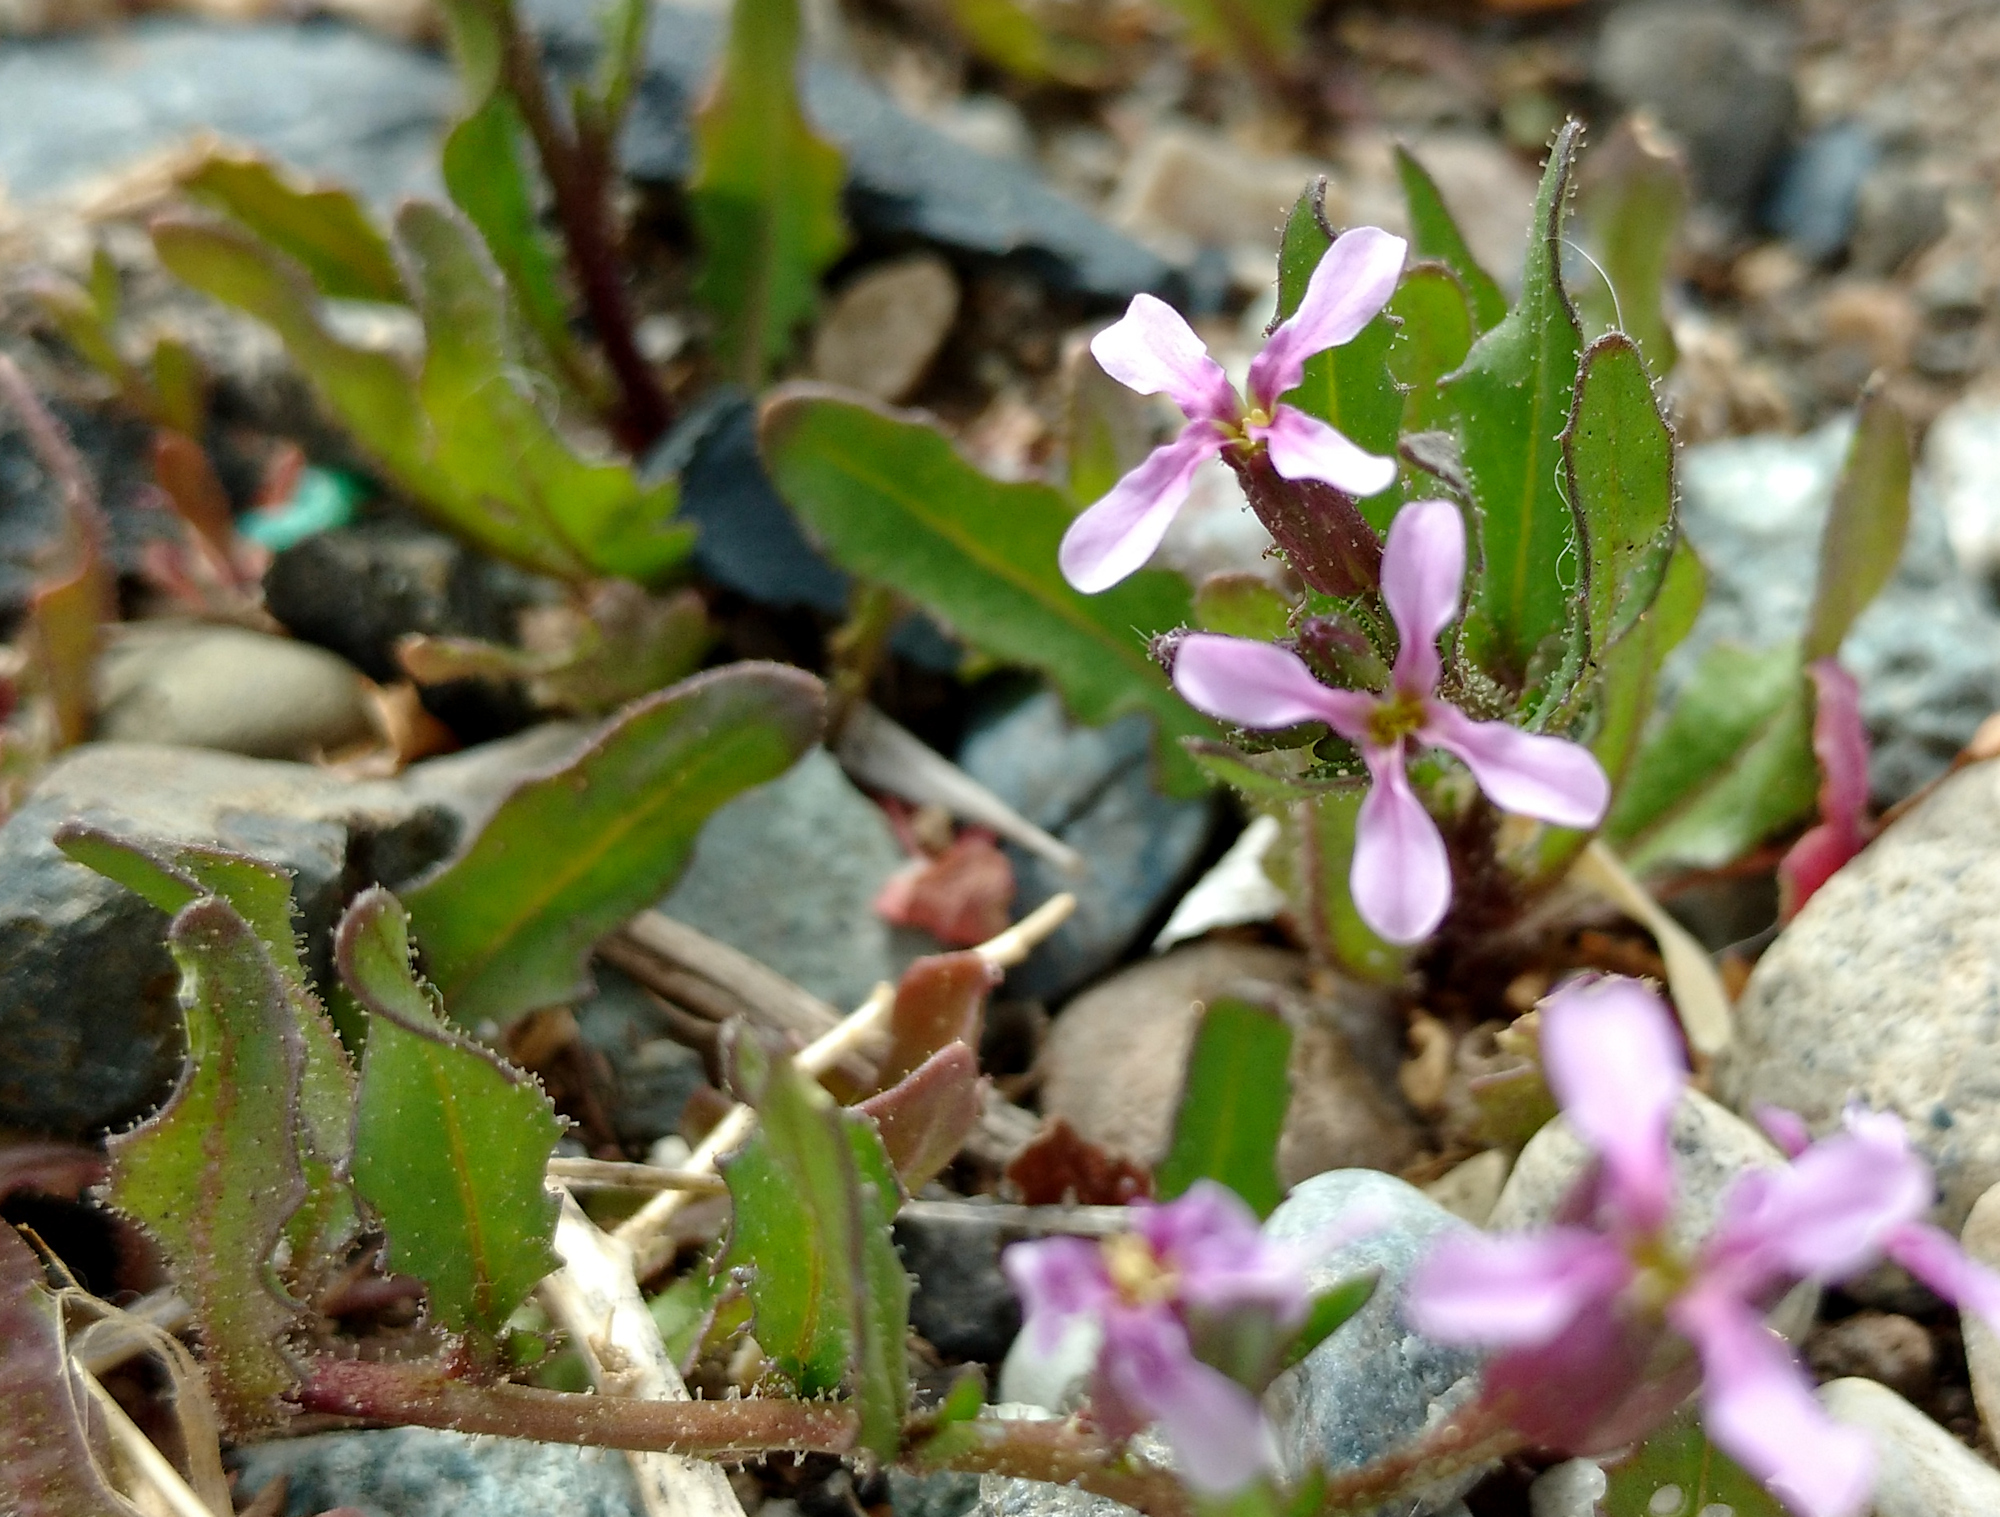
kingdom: Plantae
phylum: Tracheophyta
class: Magnoliopsida
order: Brassicales
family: Brassicaceae
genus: Chorispora
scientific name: Chorispora tenella
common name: Crossflower
